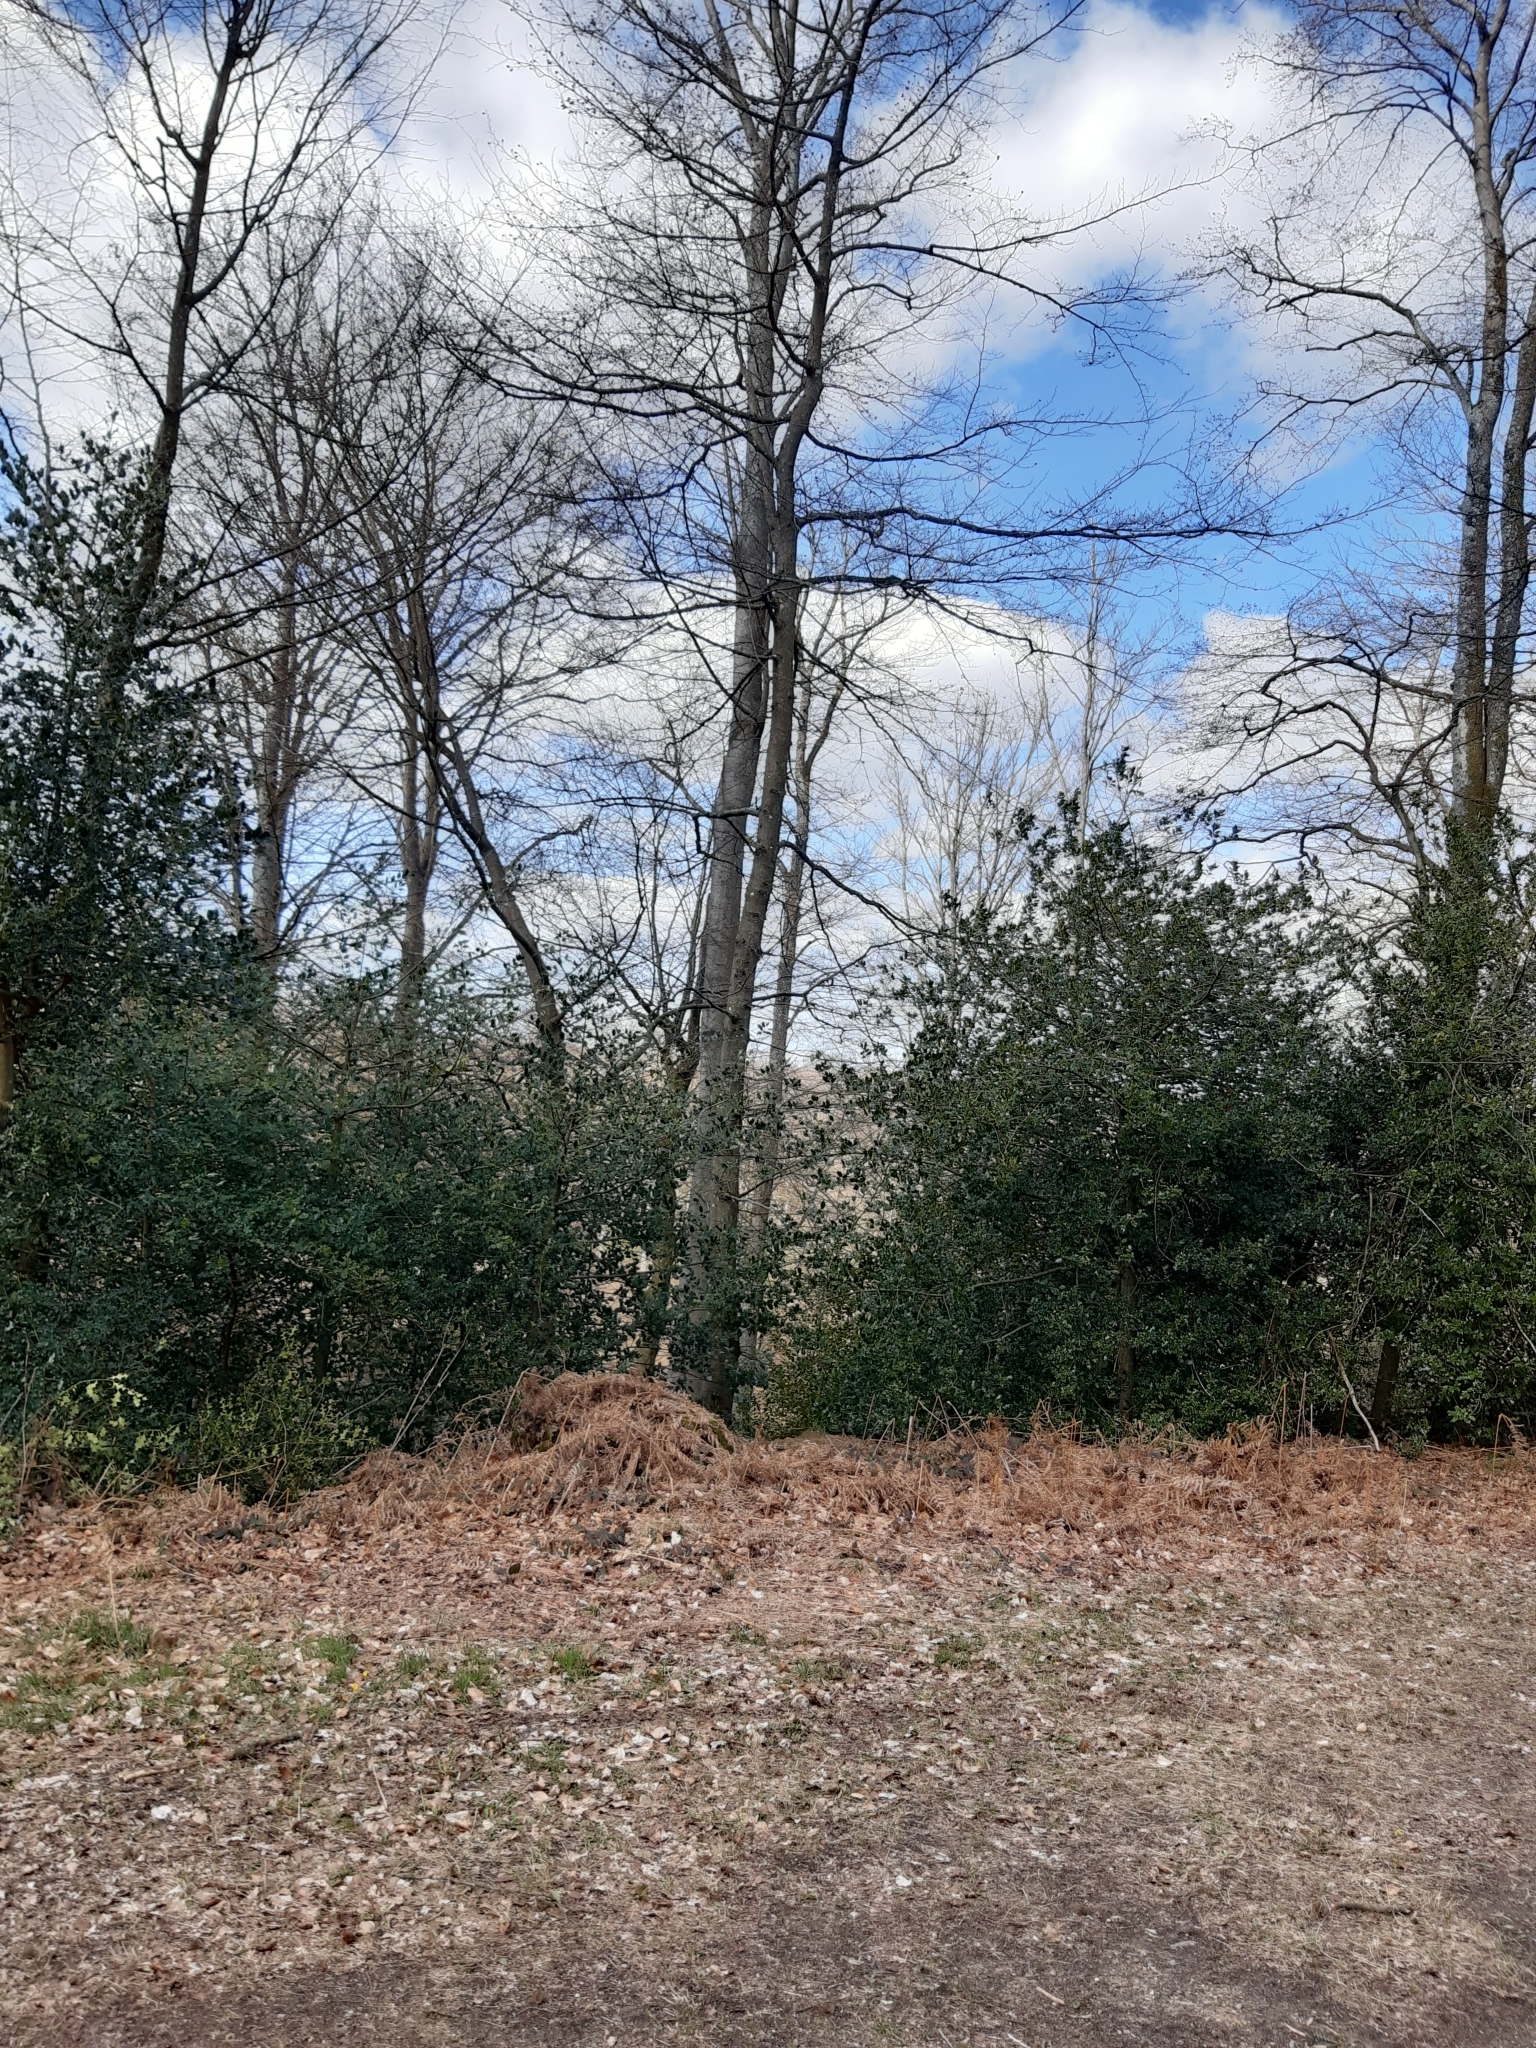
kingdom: Plantae
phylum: Tracheophyta
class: Magnoliopsida
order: Aquifoliales
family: Aquifoliaceae
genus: Ilex
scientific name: Ilex aquifolium
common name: English holly
